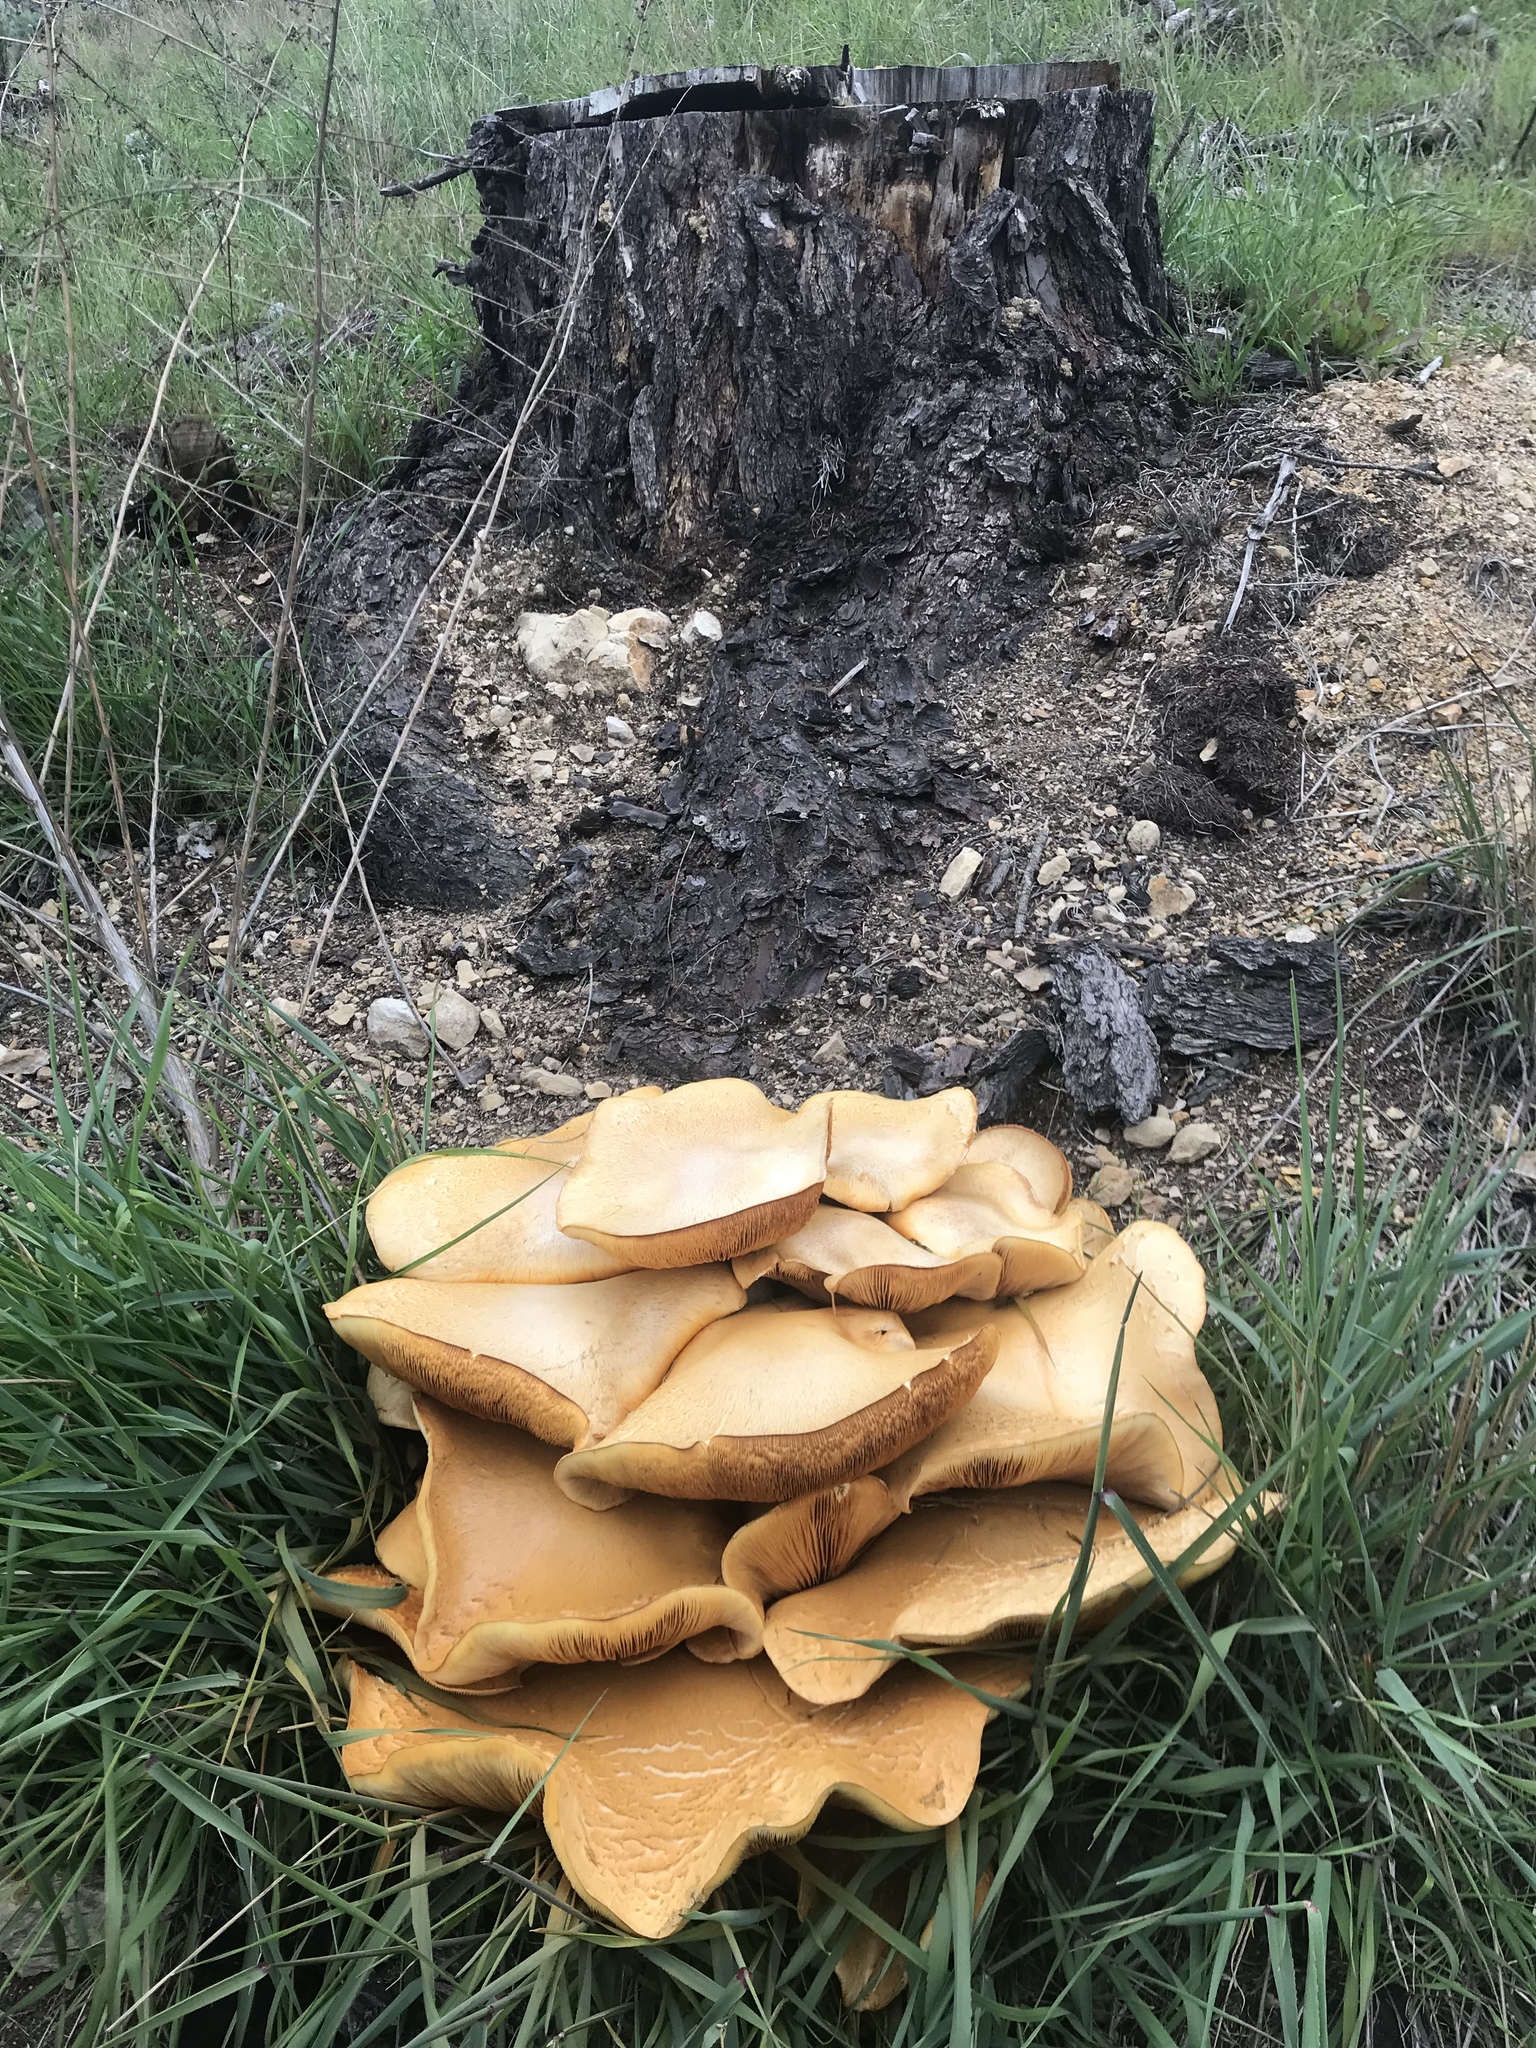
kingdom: Fungi
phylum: Basidiomycota
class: Agaricomycetes
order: Agaricales
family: Hymenogastraceae
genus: Gymnopilus
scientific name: Gymnopilus ventricosus
